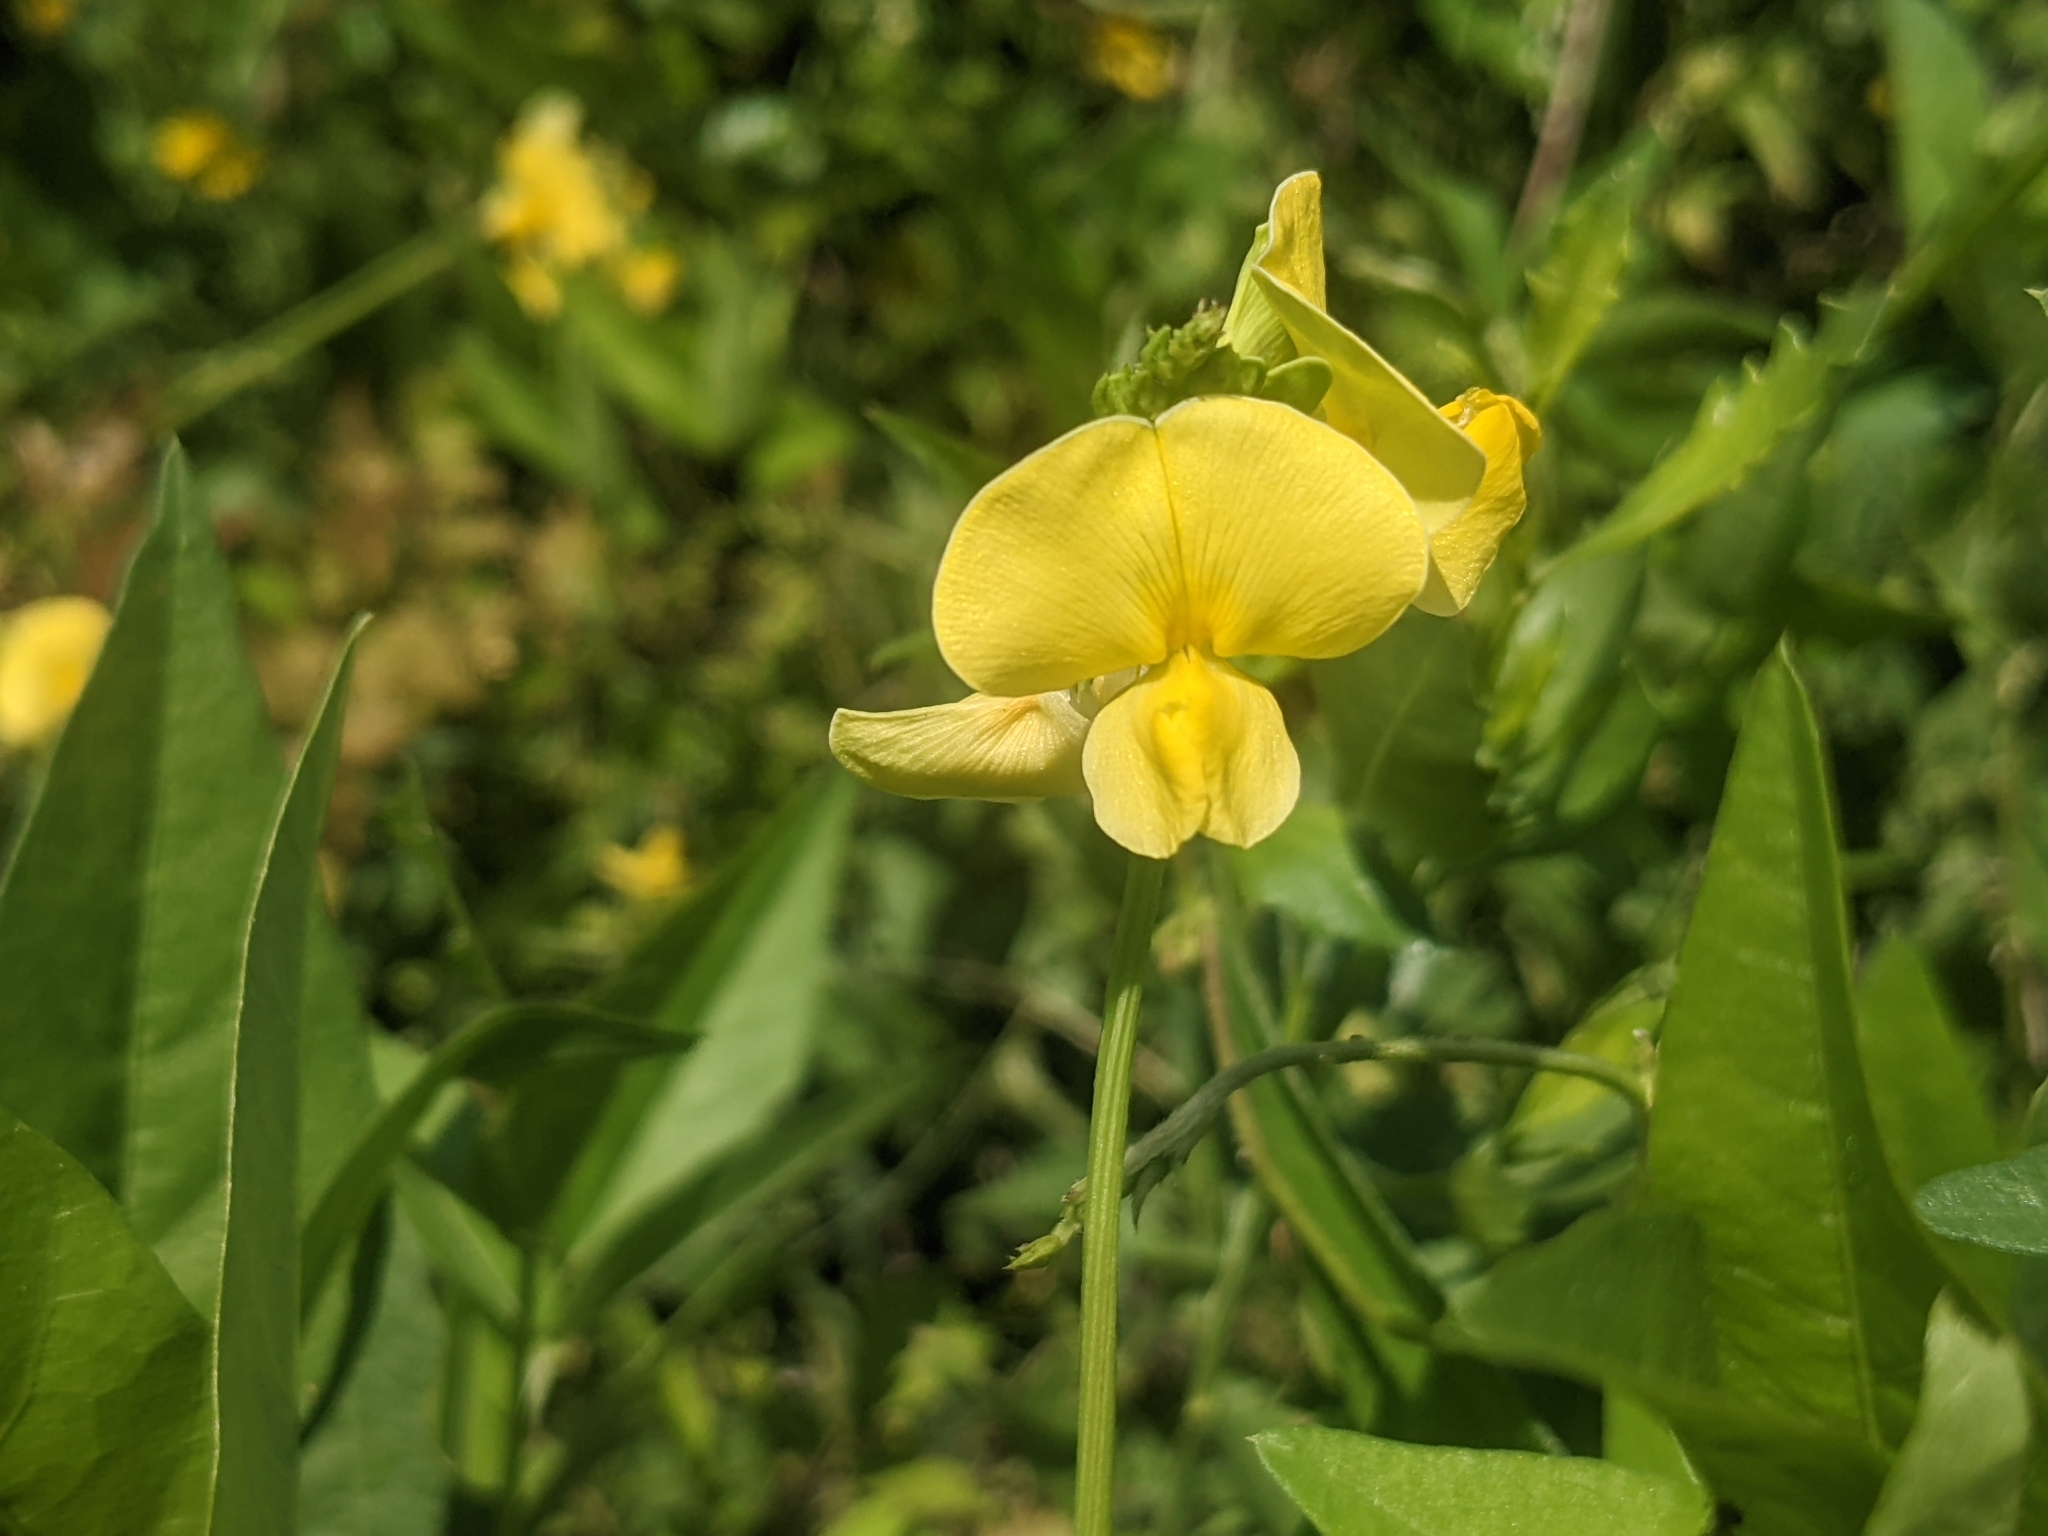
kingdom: Plantae
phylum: Tracheophyta
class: Magnoliopsida
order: Fabales
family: Fabaceae
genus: Vigna
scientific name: Vigna luteola
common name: Hairypod cowpea
